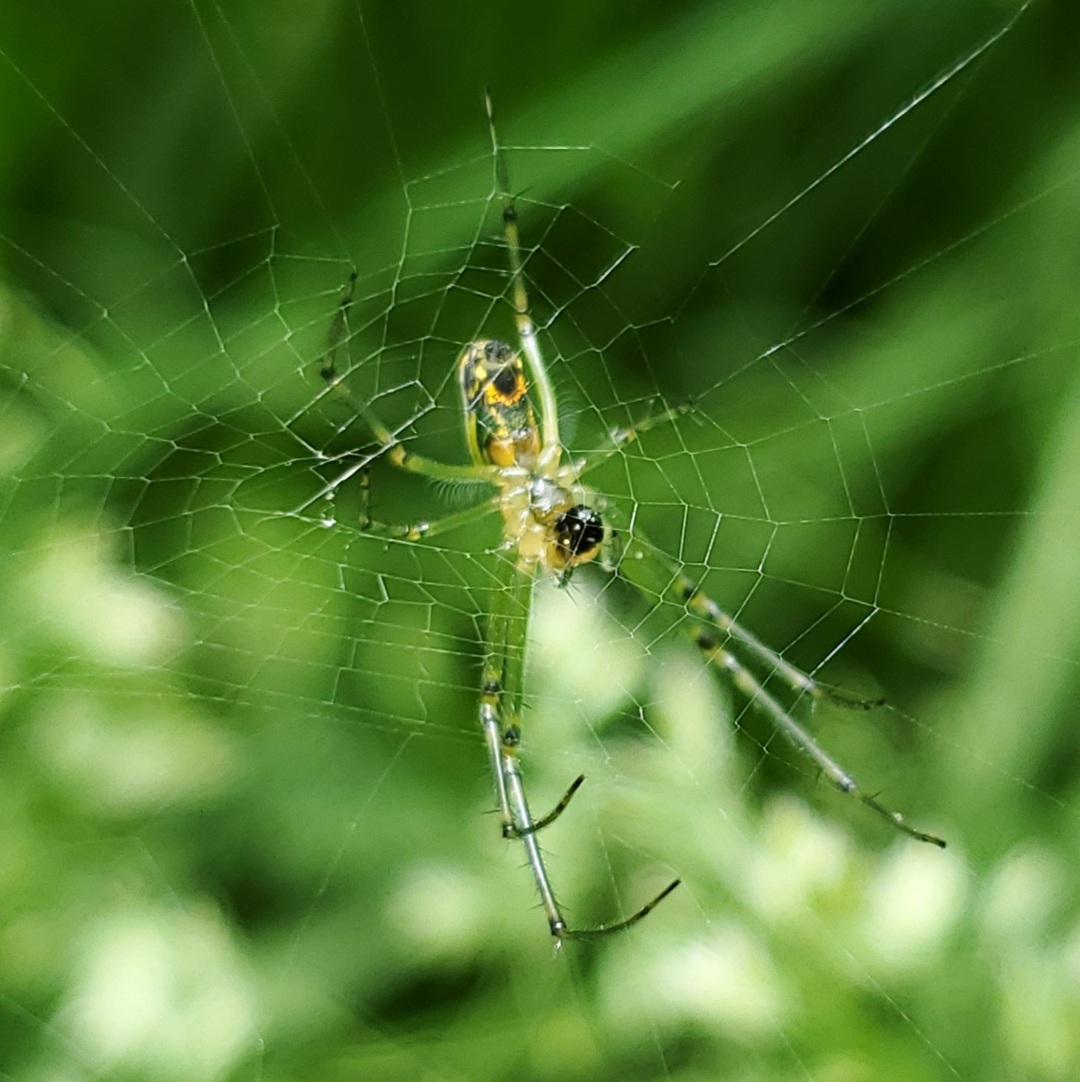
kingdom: Animalia
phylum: Arthropoda
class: Arachnida
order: Araneae
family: Tetragnathidae
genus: Leucauge
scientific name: Leucauge venusta
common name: Longjawed orb weavers
